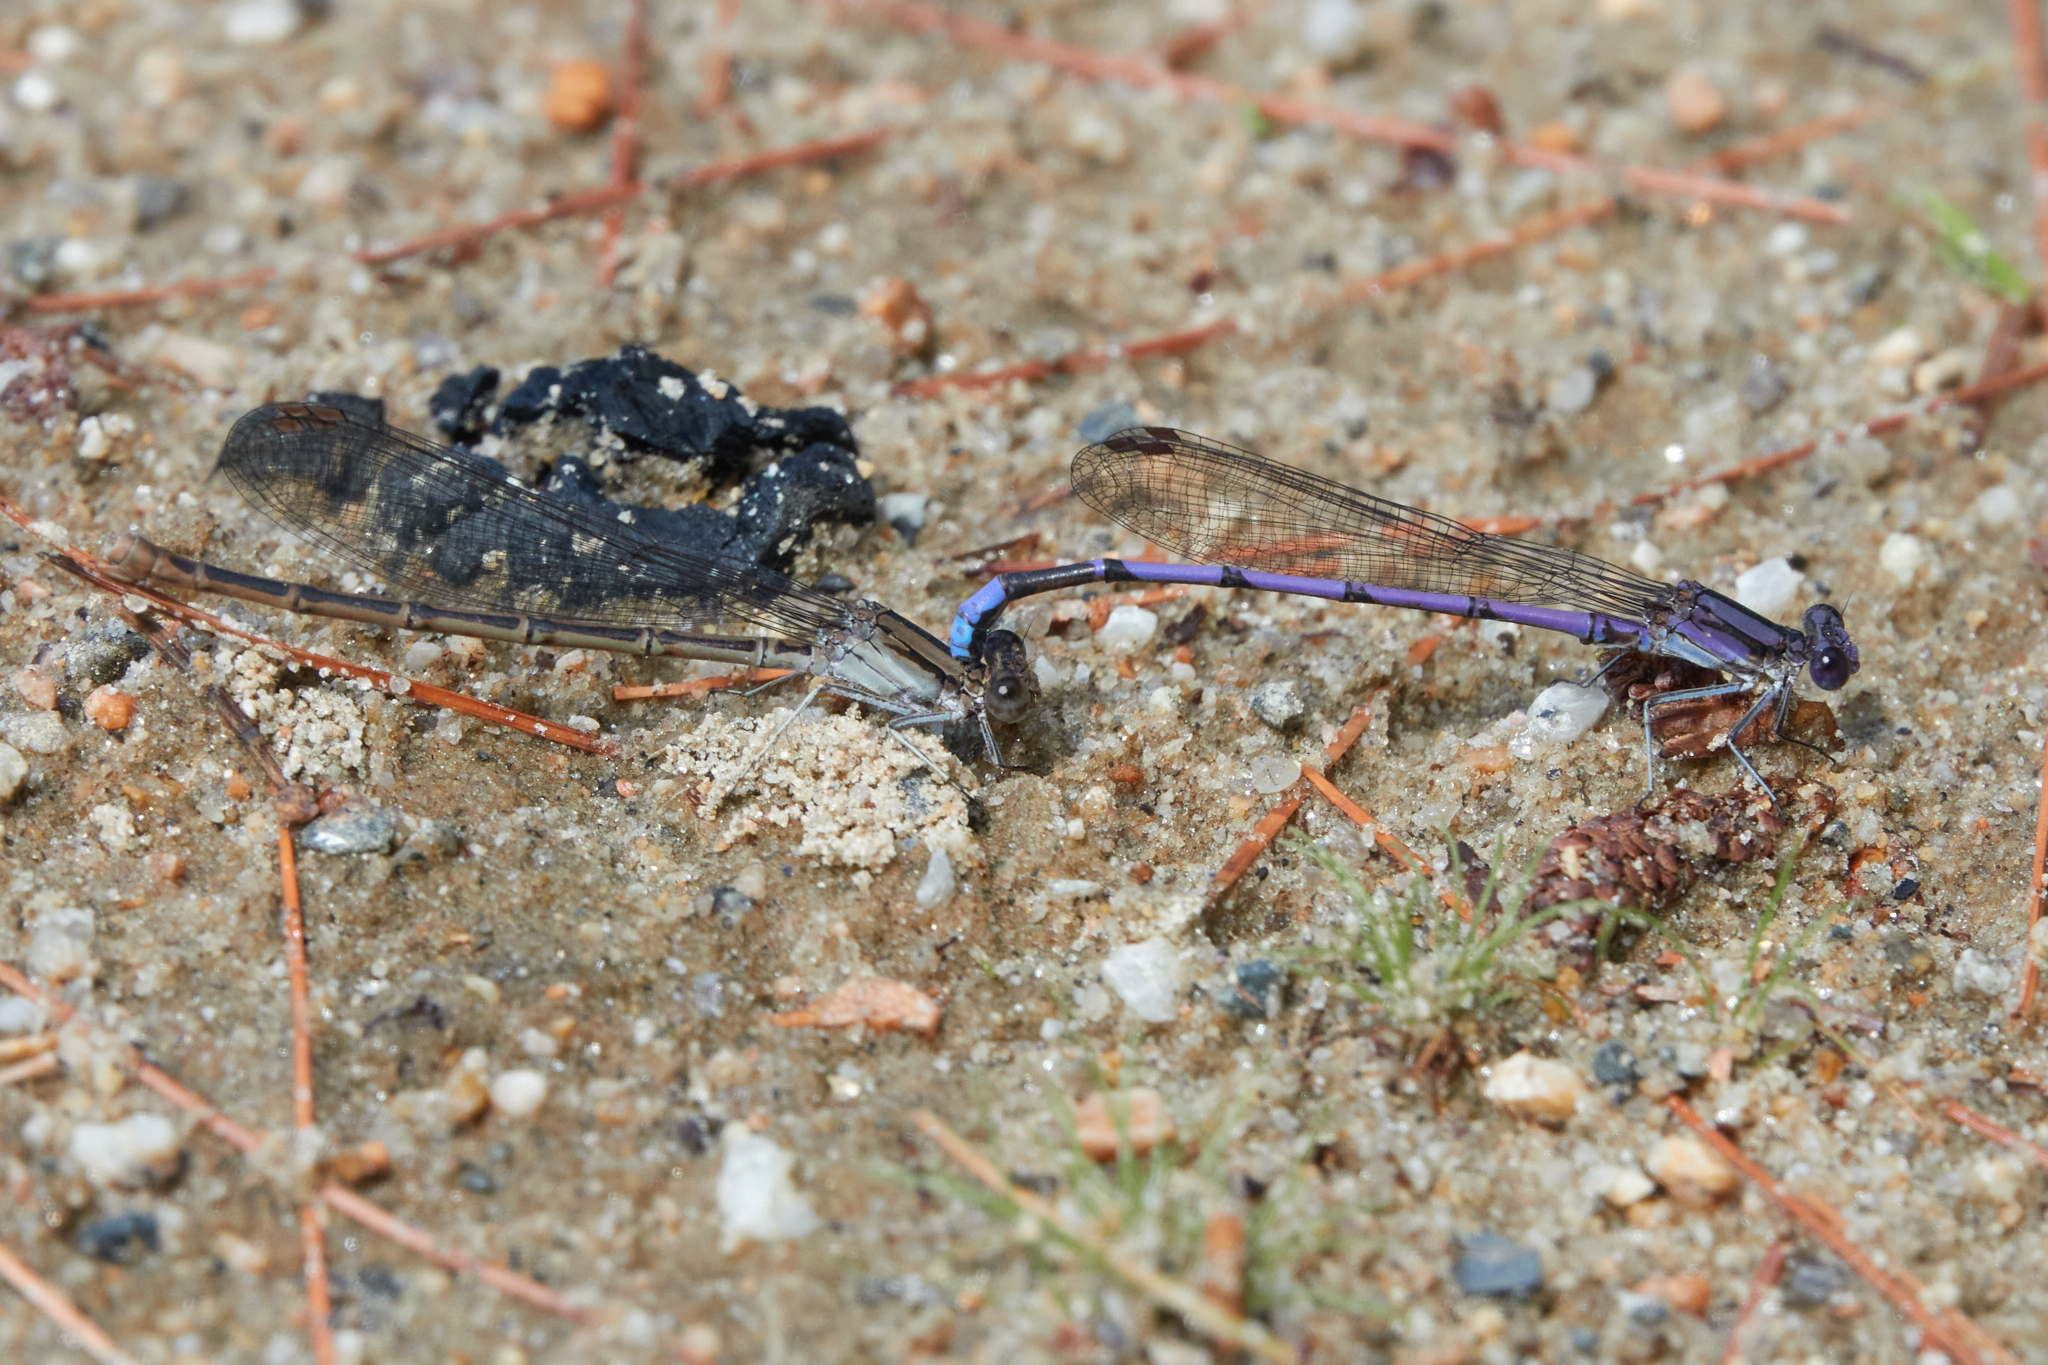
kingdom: Animalia
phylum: Arthropoda
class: Insecta
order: Odonata
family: Coenagrionidae
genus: Argia
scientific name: Argia fumipennis
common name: Variable dancer
